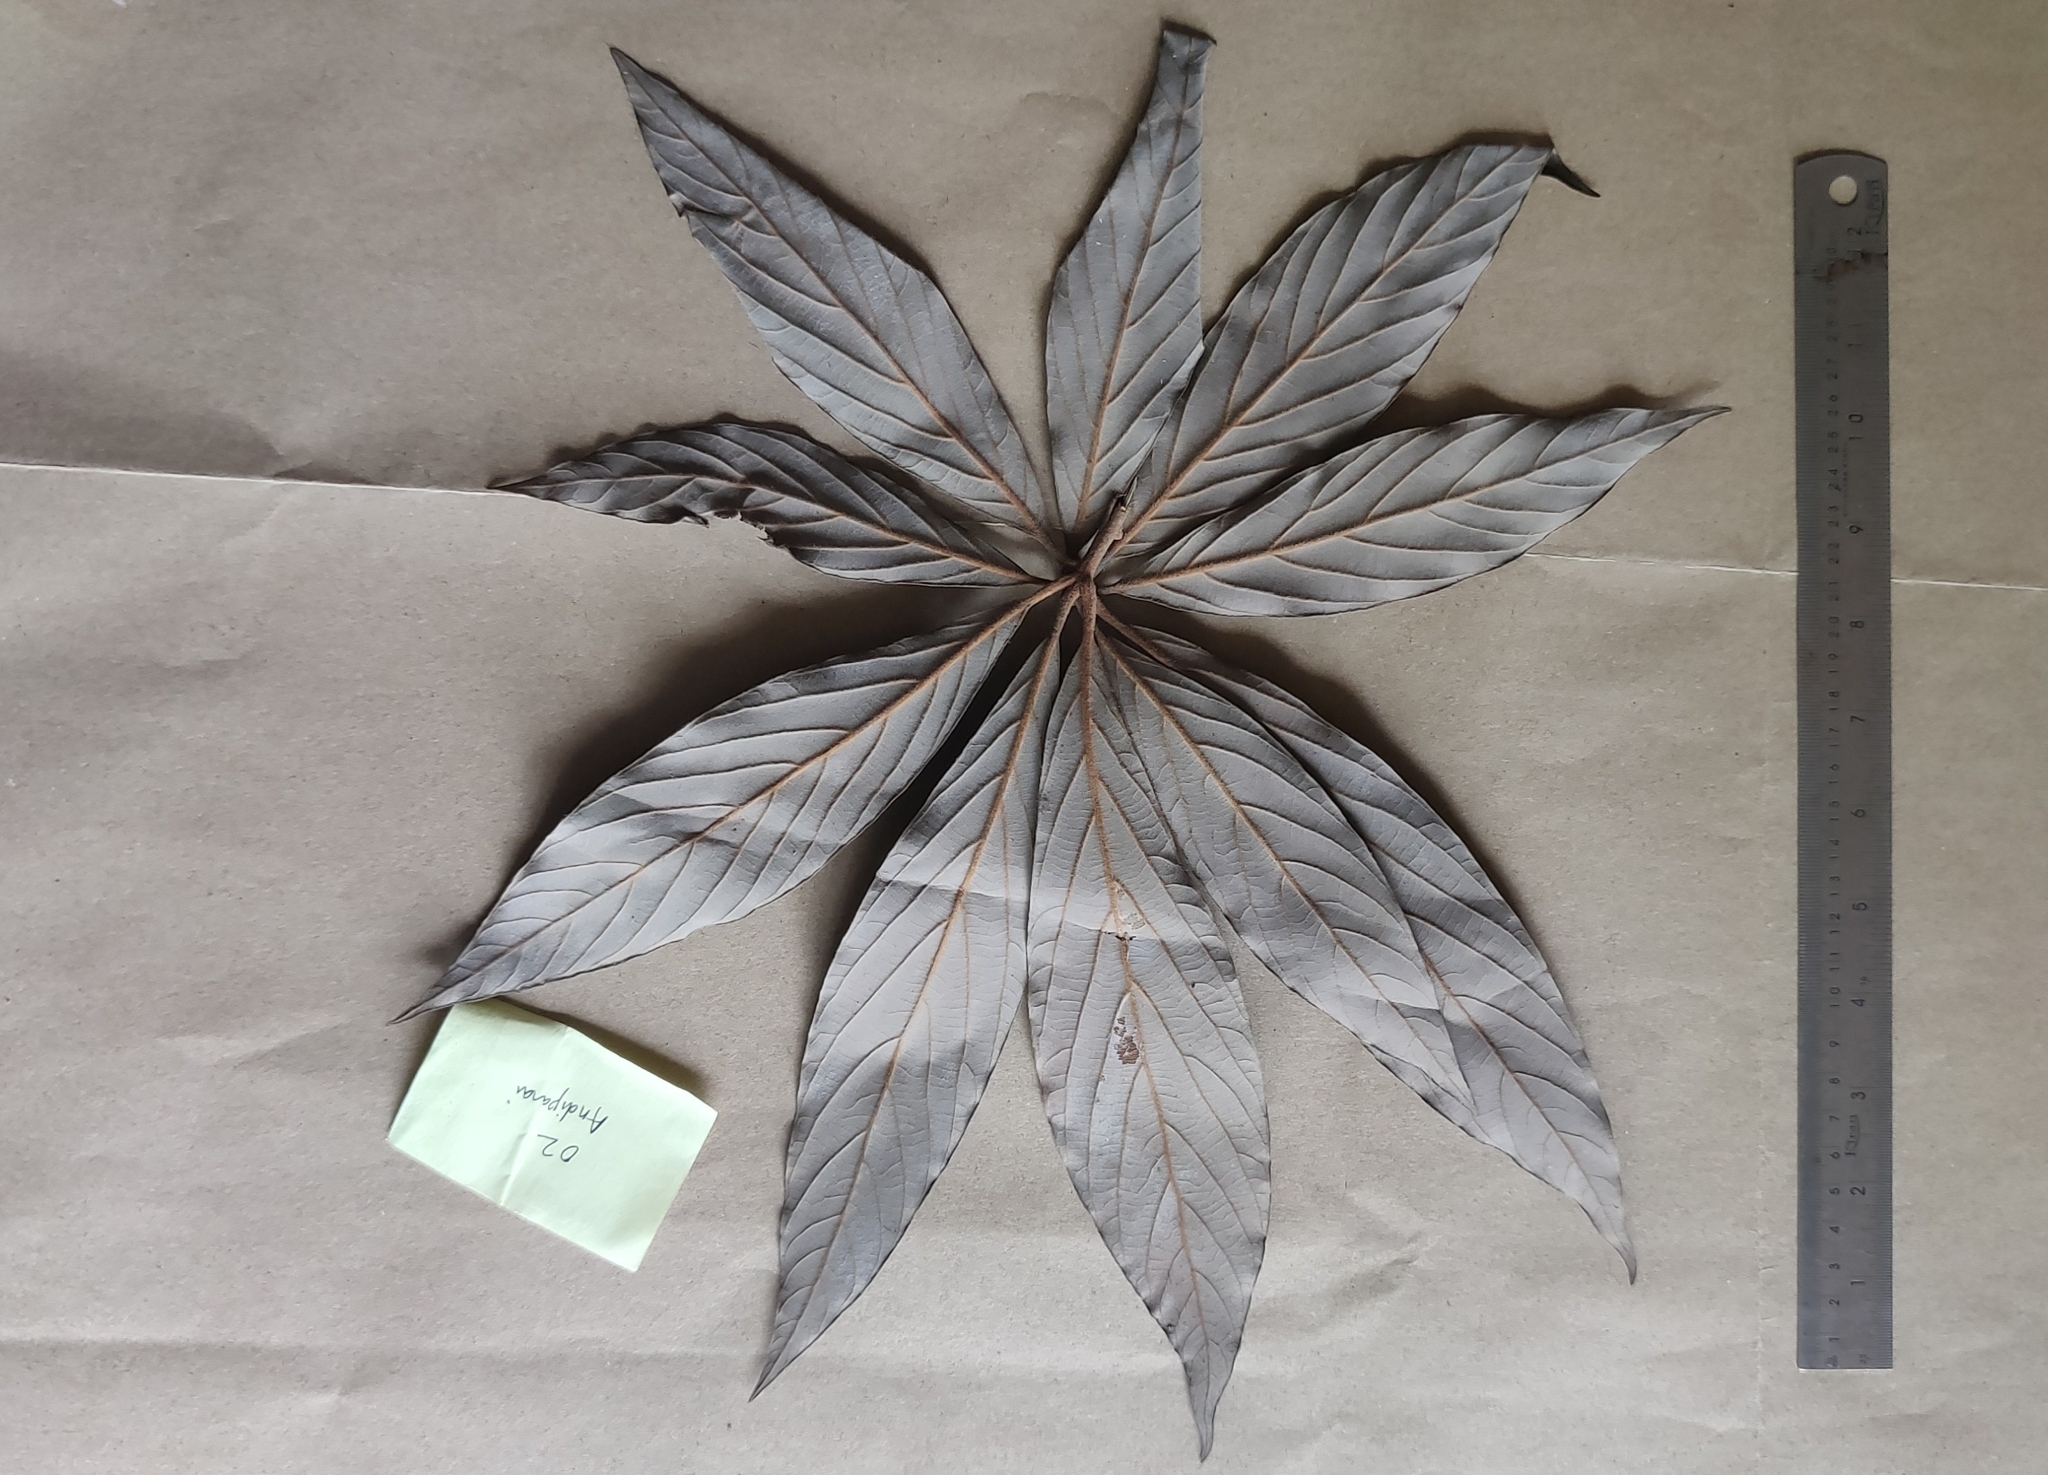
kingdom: Plantae
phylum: Tracheophyta
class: Magnoliopsida
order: Laurales
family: Lauraceae
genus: Actinodaphne
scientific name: Actinodaphne bourdillonii
